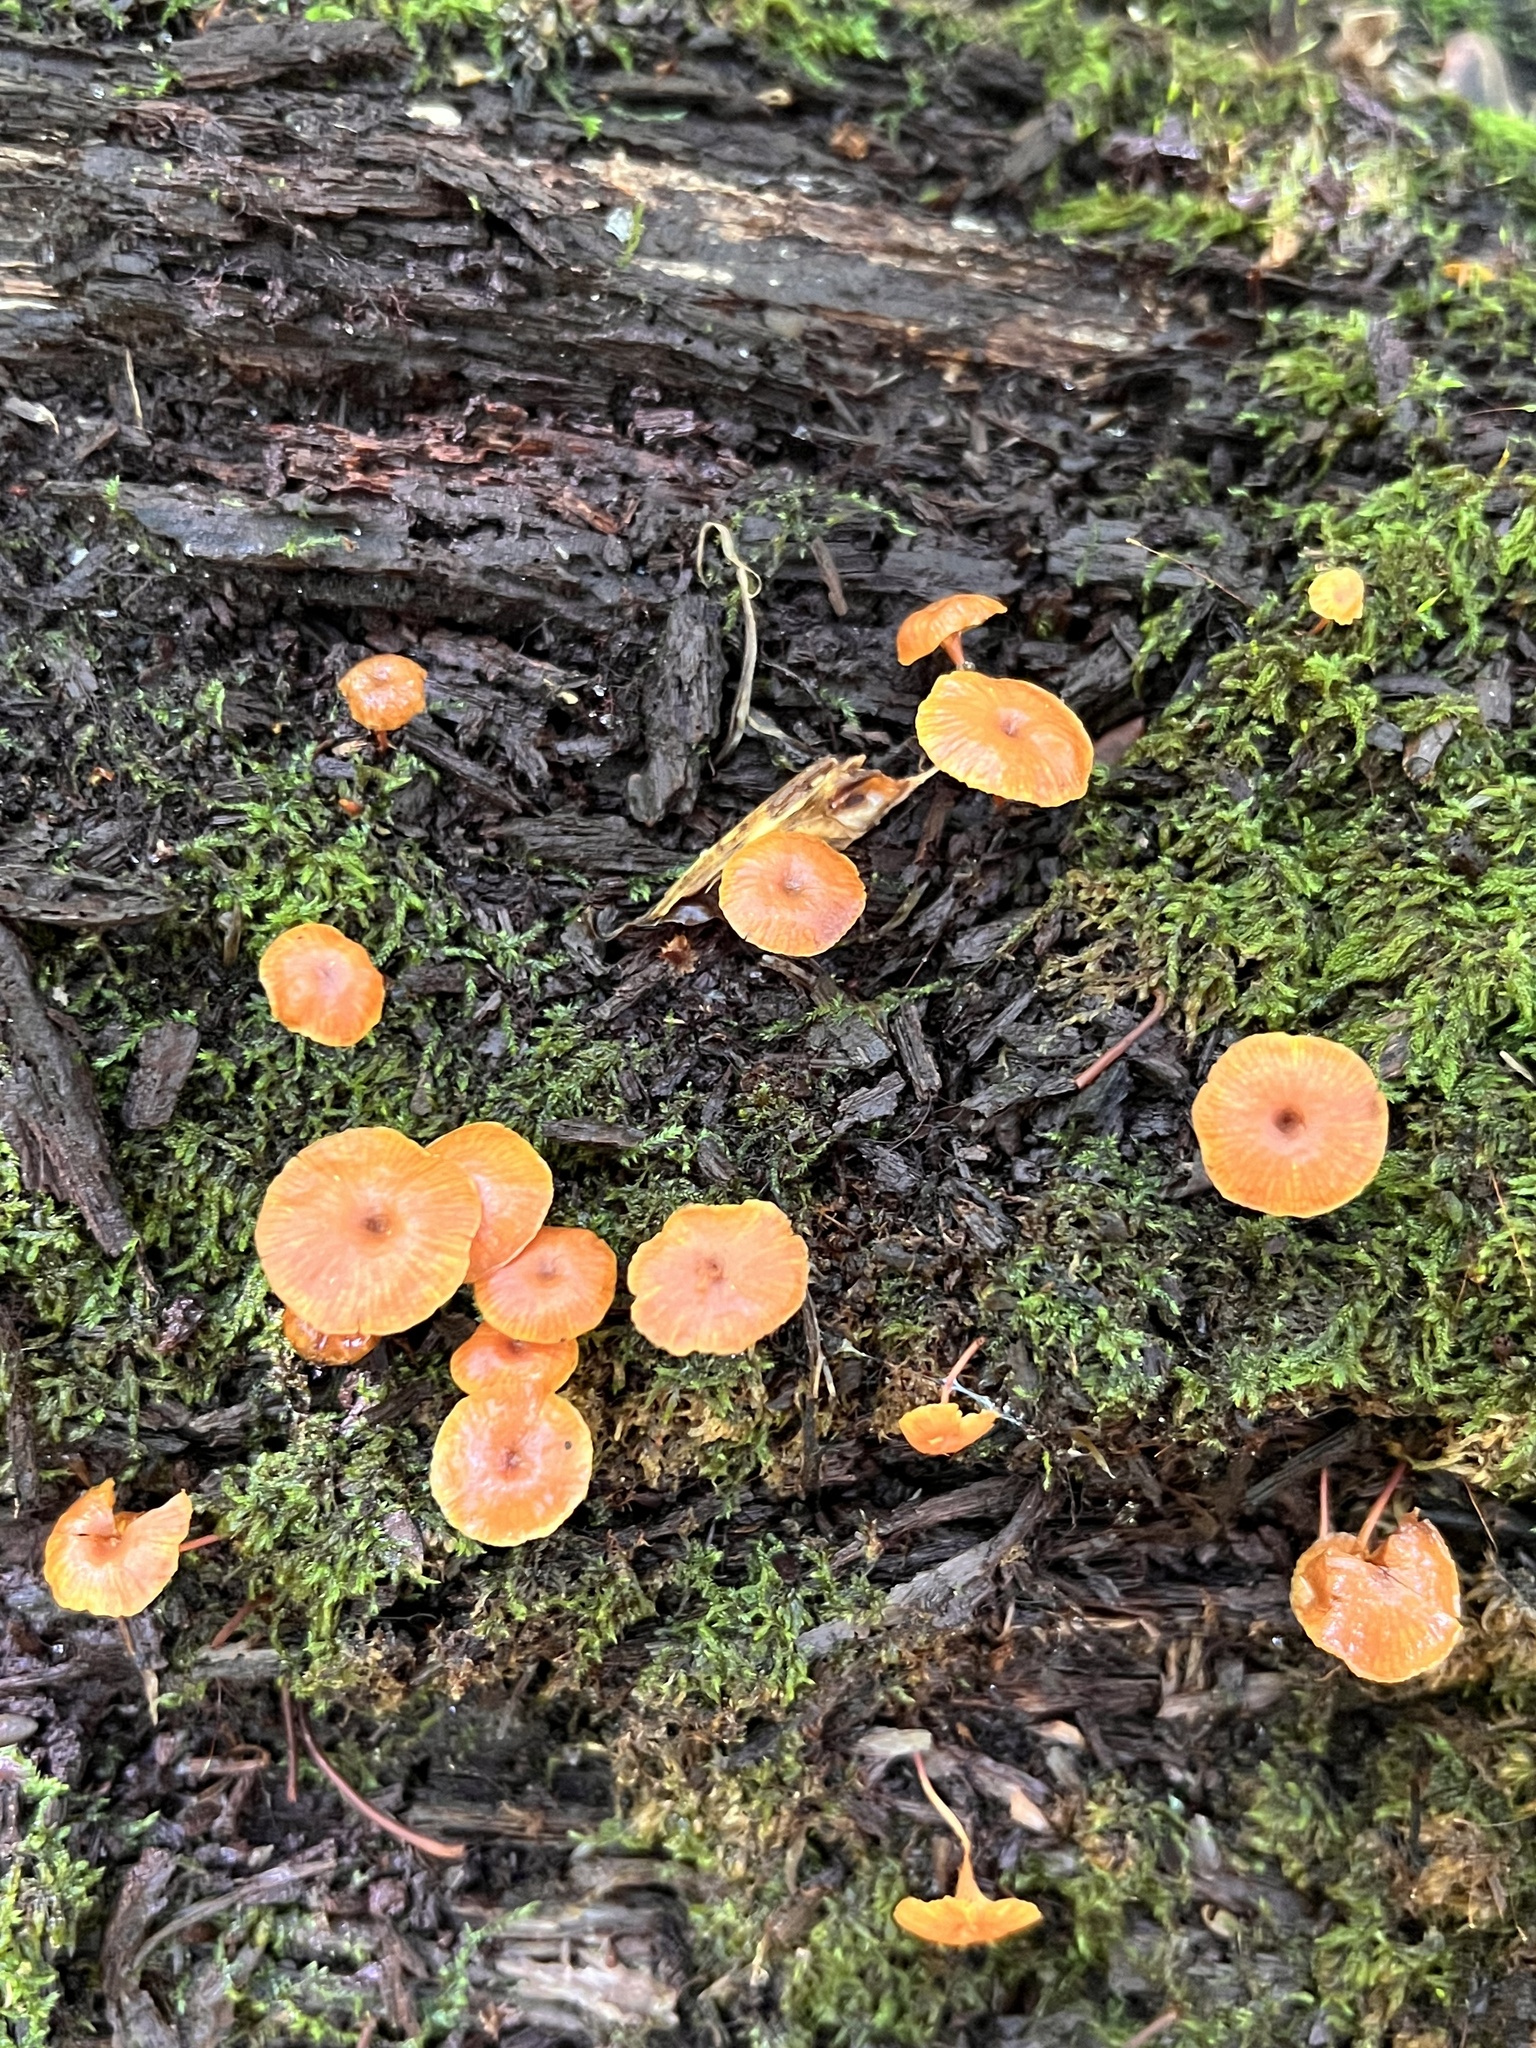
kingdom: Fungi
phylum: Basidiomycota
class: Agaricomycetes
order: Agaricales
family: Mycenaceae
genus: Xeromphalina
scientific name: Xeromphalina
